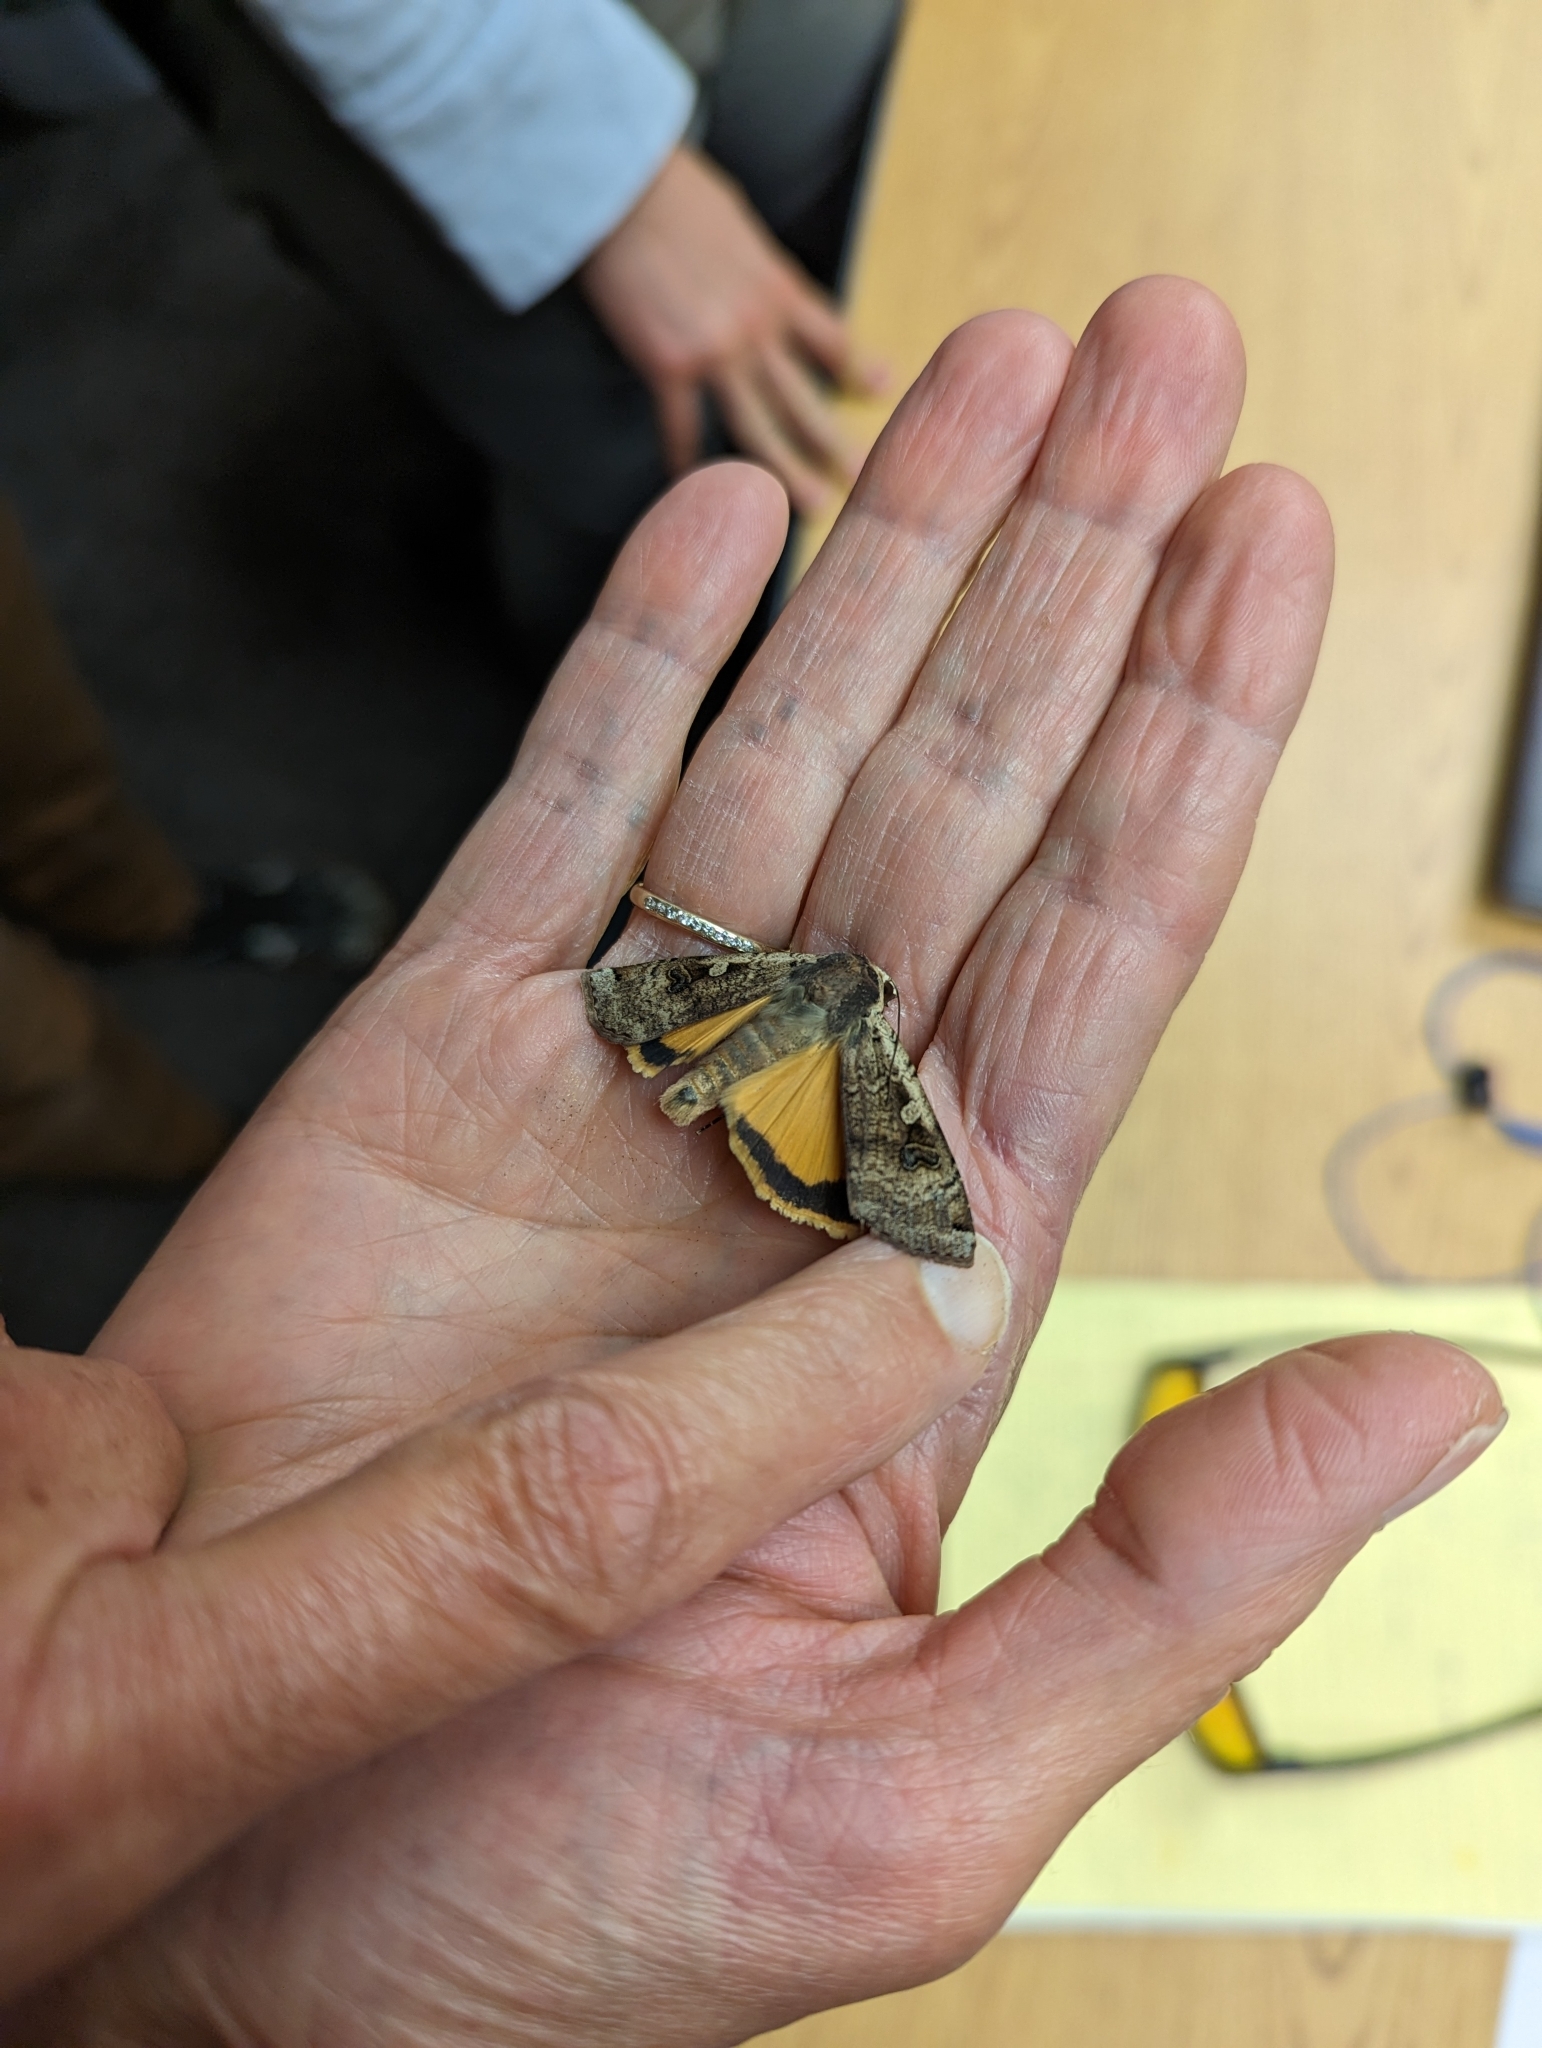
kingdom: Animalia
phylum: Arthropoda
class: Insecta
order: Lepidoptera
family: Noctuidae
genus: Noctua
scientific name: Noctua pronuba
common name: Large yellow underwing
